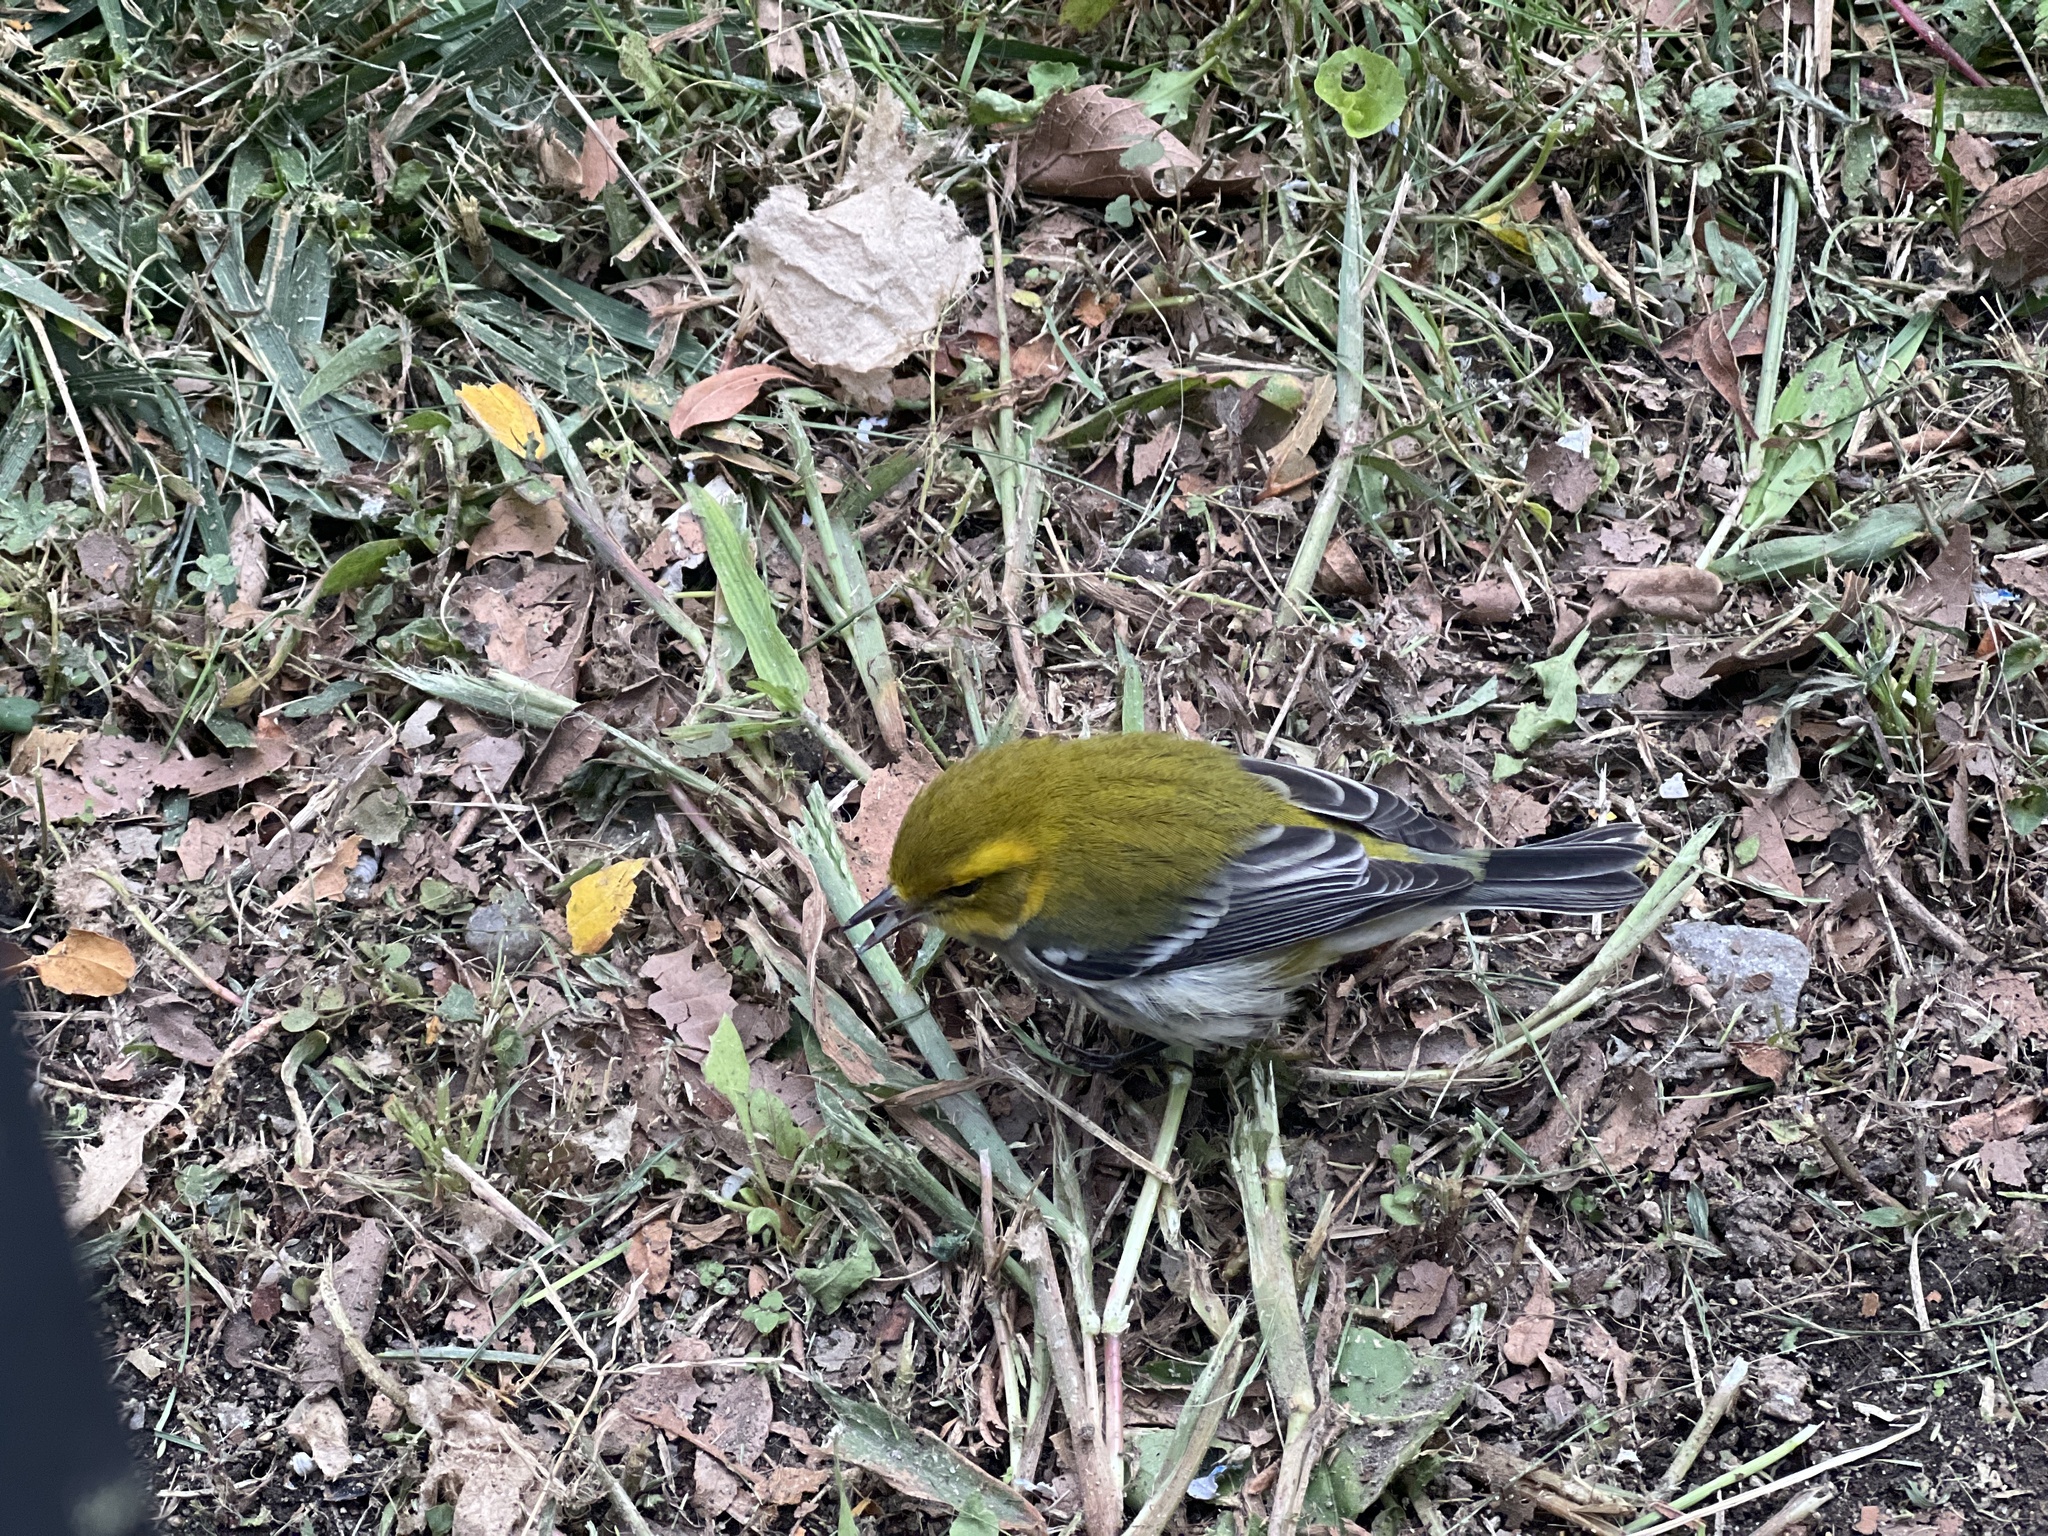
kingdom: Animalia
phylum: Chordata
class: Aves
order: Passeriformes
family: Parulidae
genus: Setophaga
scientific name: Setophaga virens
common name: Black-throated green warbler
